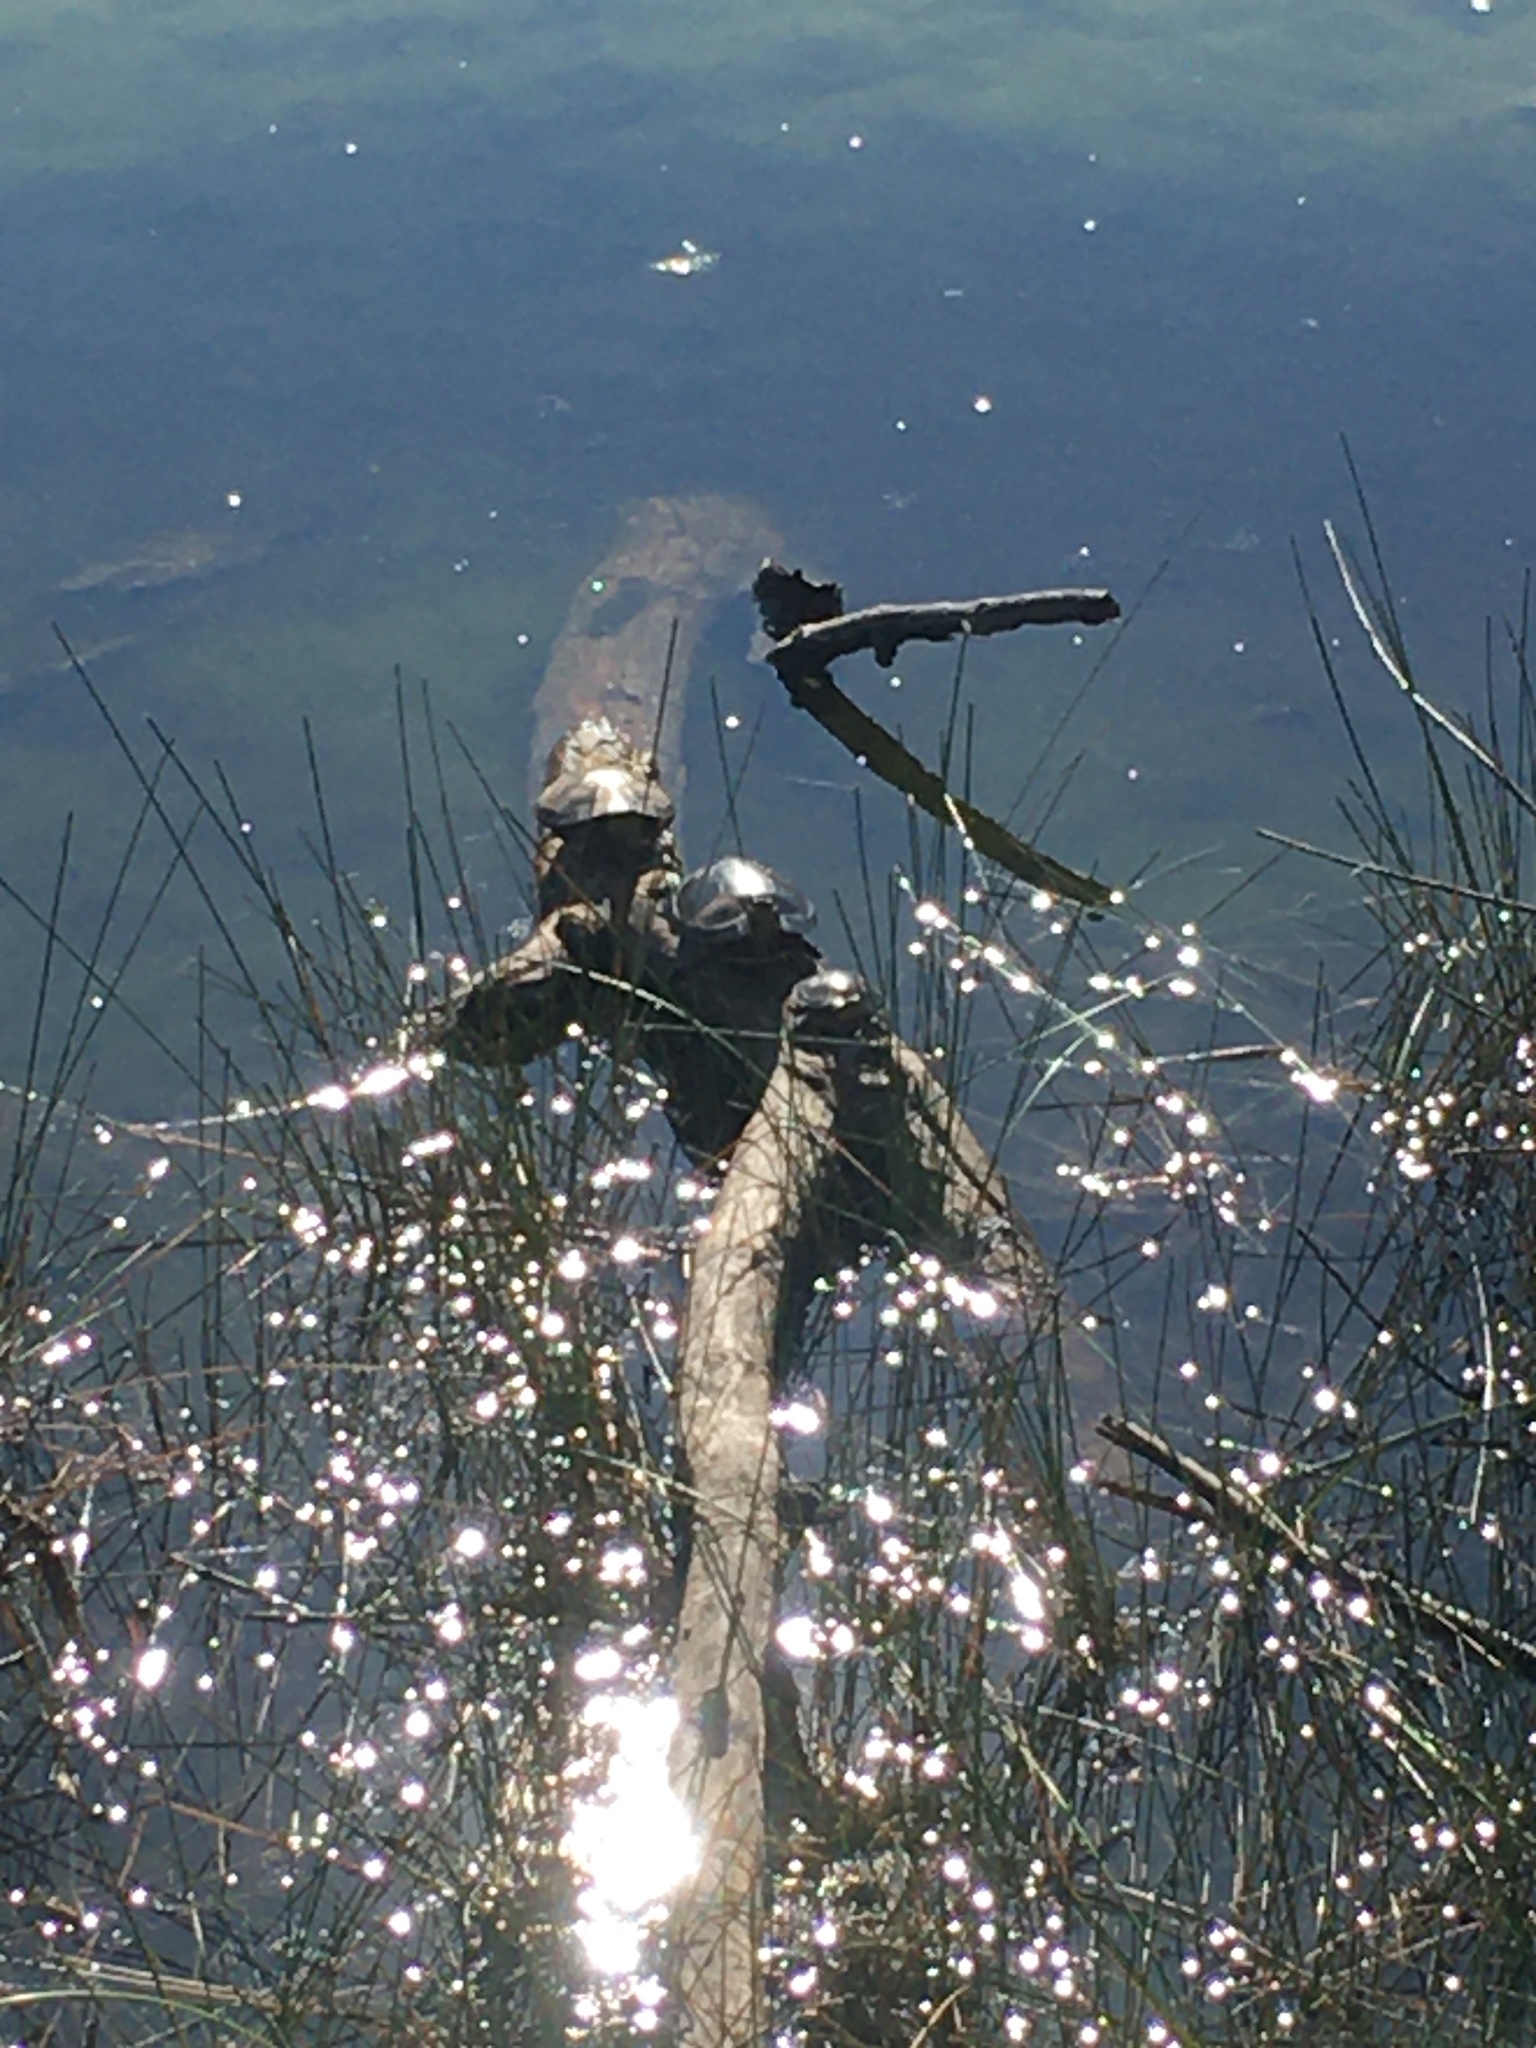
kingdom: Animalia
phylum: Chordata
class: Testudines
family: Emydidae
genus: Chrysemys
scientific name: Chrysemys picta
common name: Painted turtle
